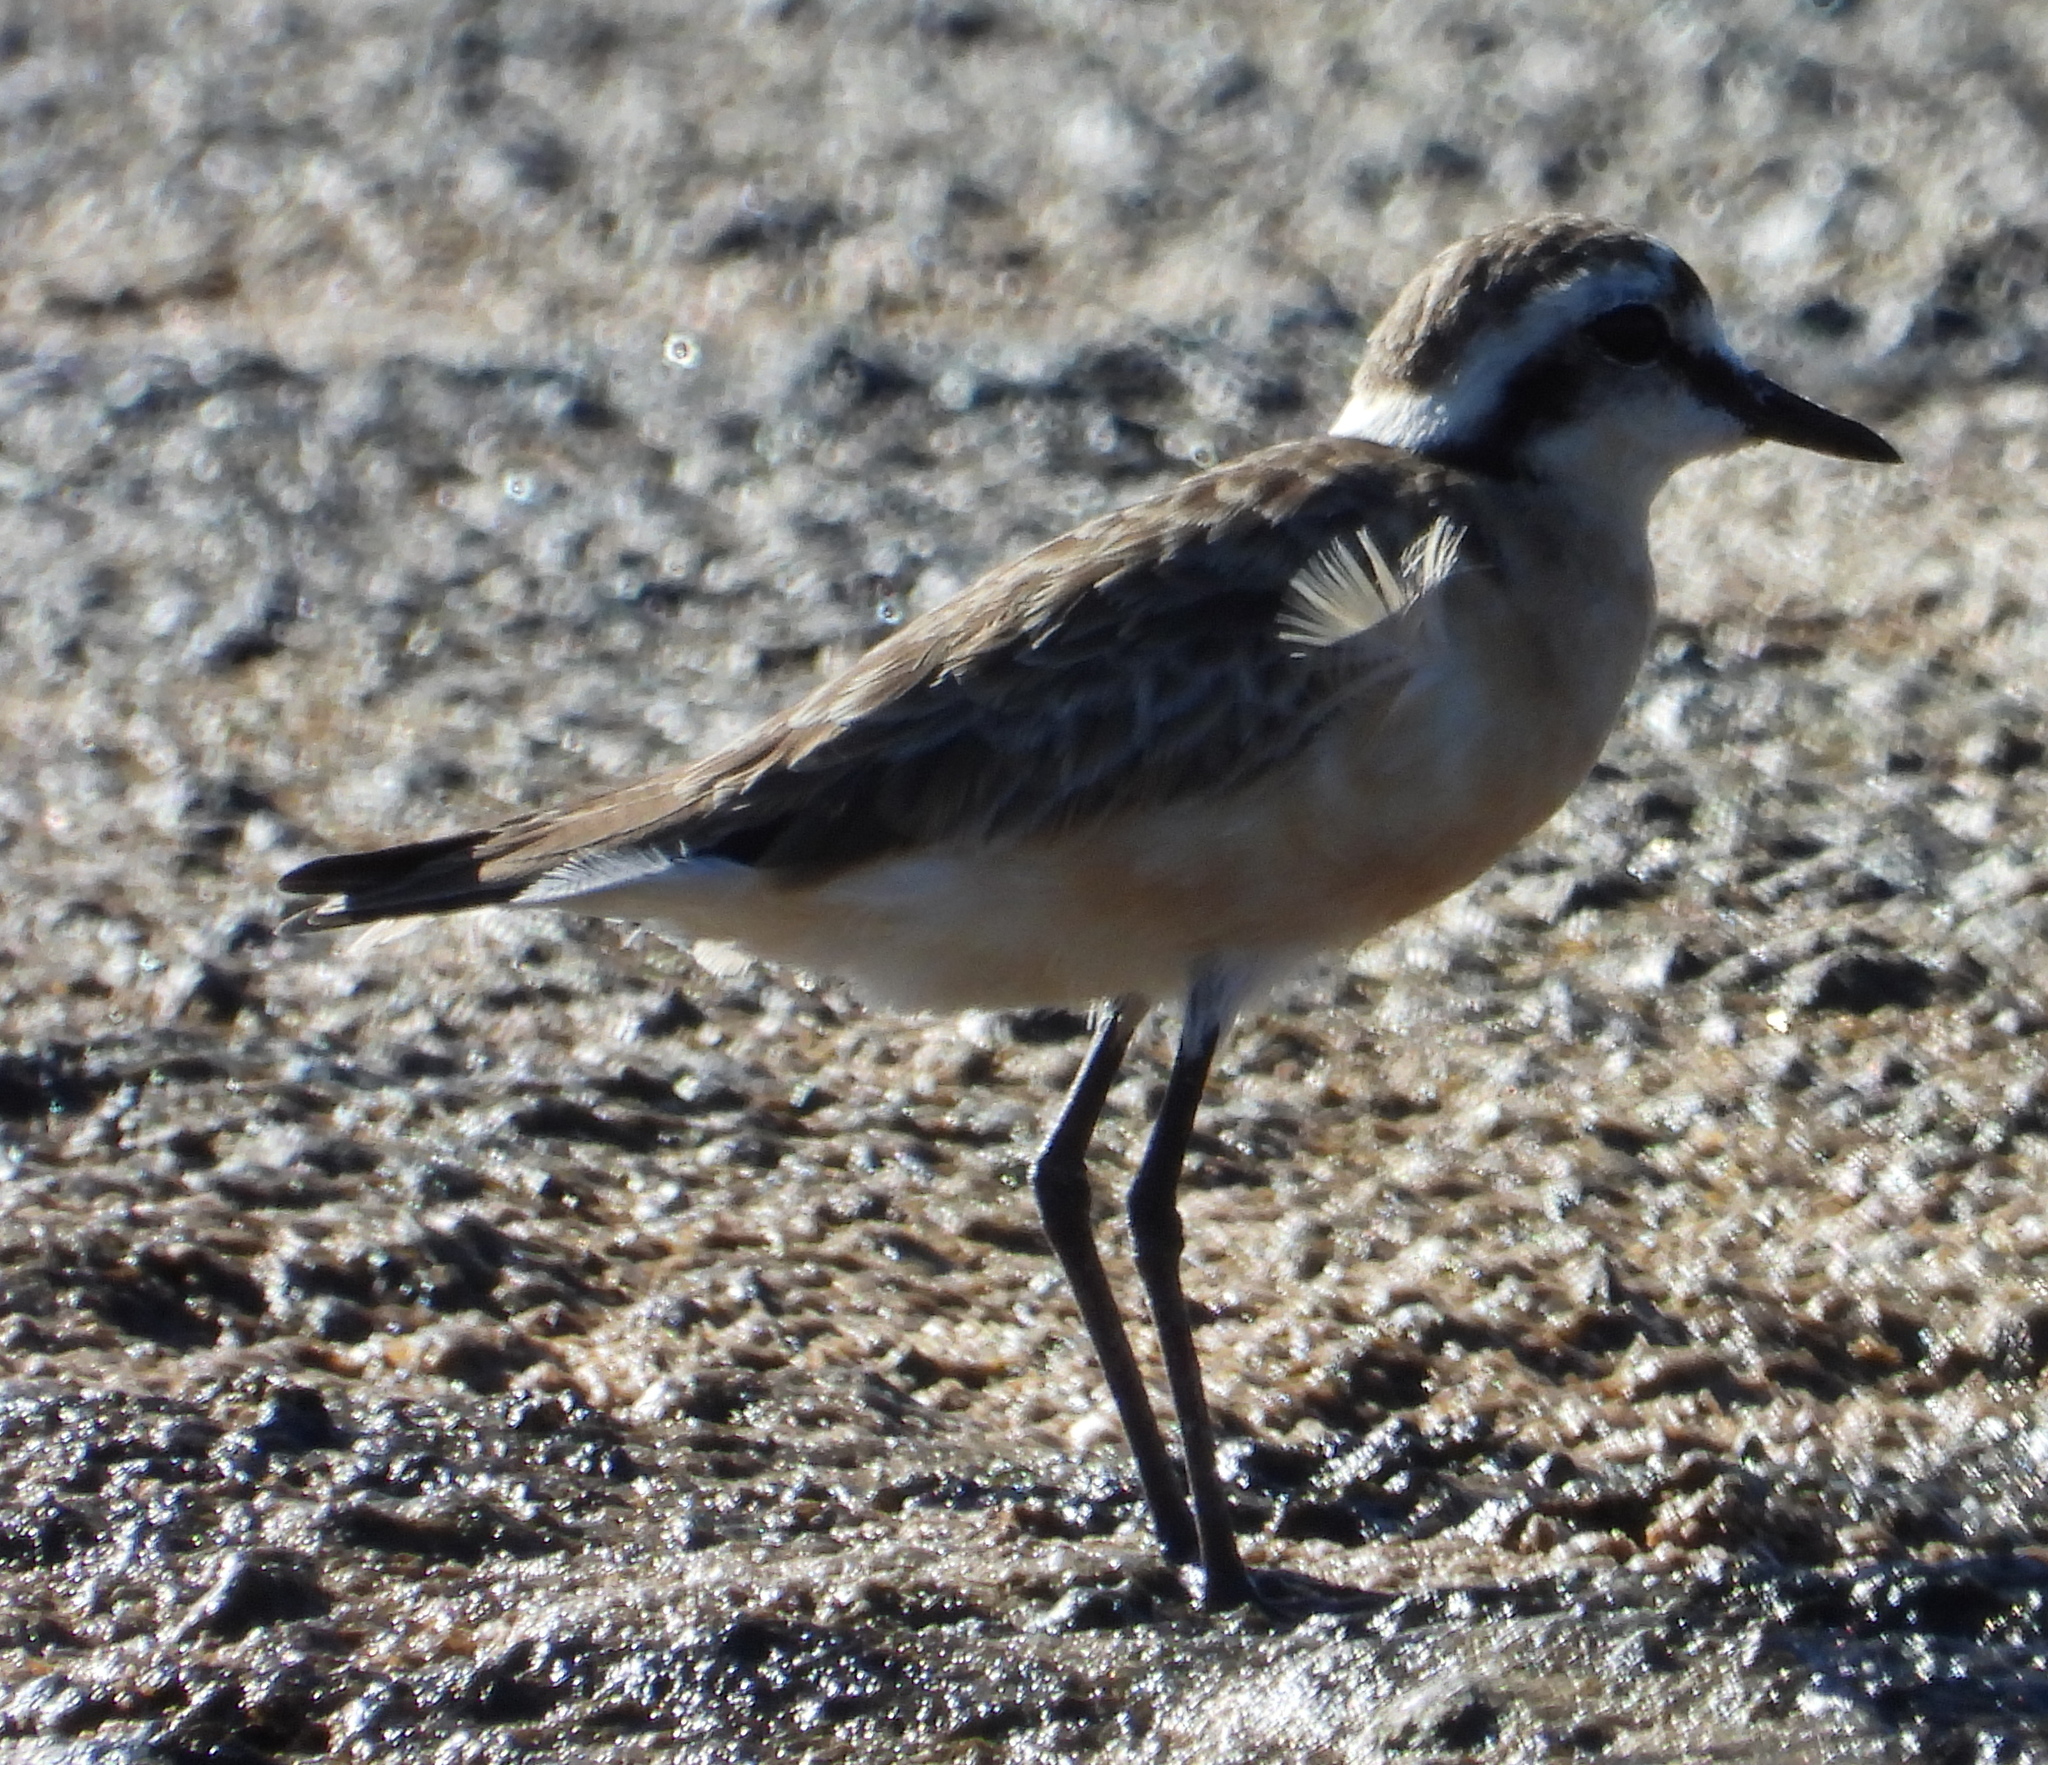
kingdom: Animalia
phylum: Chordata
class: Aves
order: Charadriiformes
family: Charadriidae
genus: Anarhynchus
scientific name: Anarhynchus
